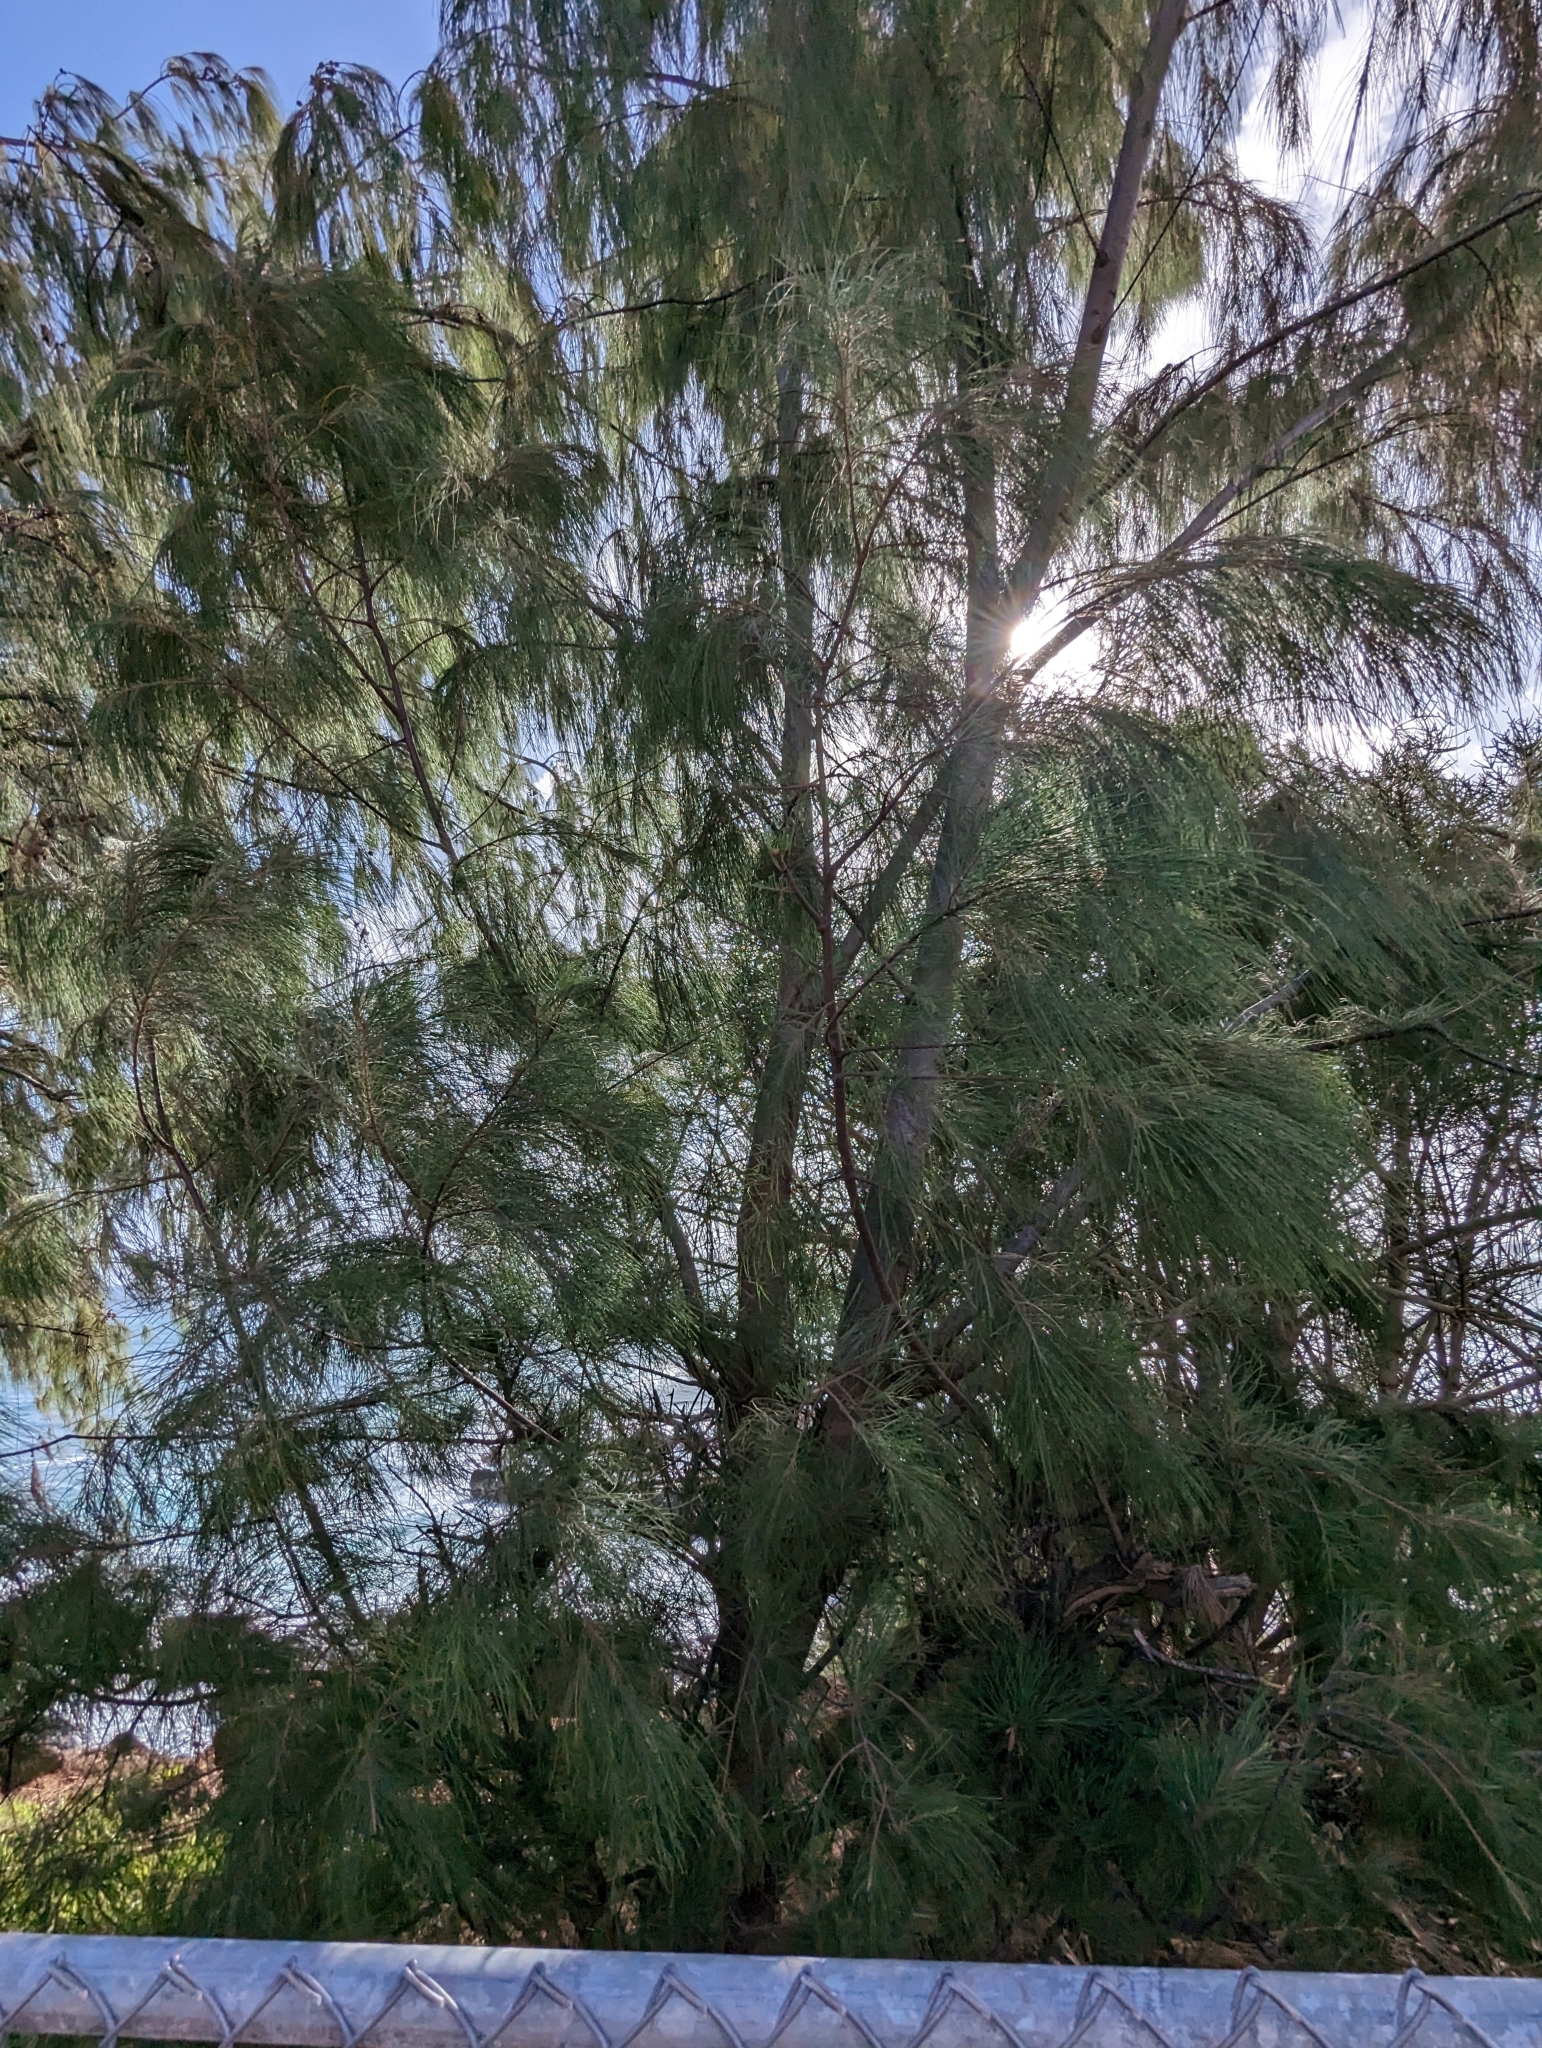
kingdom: Plantae
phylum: Tracheophyta
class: Magnoliopsida
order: Fagales
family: Casuarinaceae
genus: Casuarina
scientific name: Casuarina equisetifolia
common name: Beach sheoak
